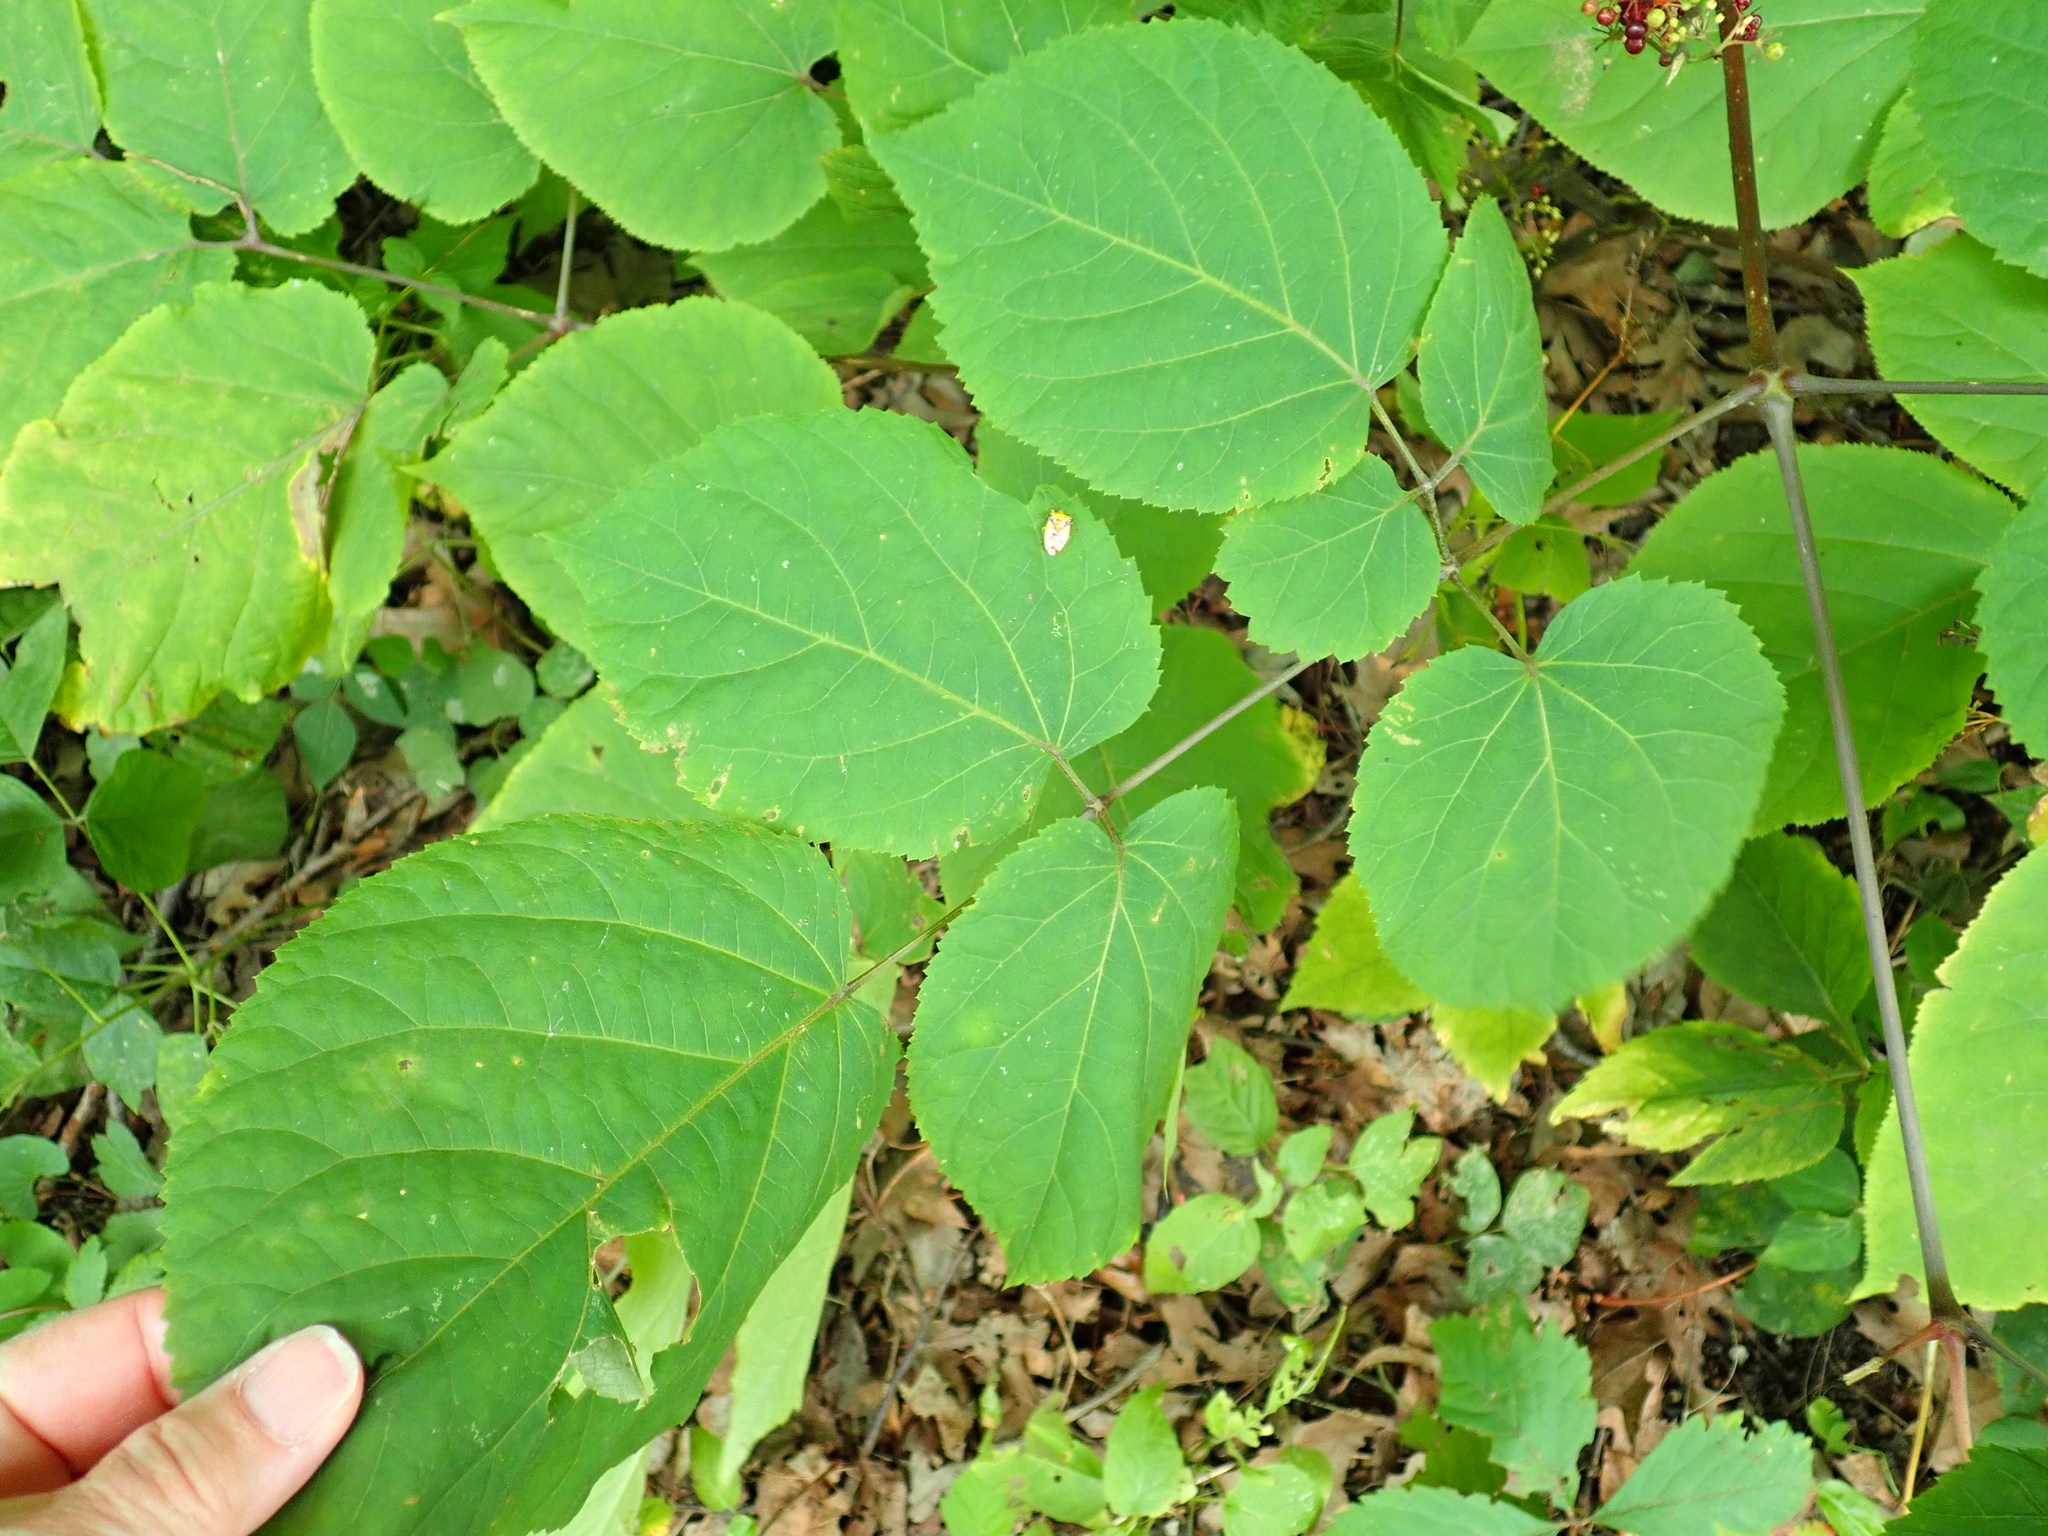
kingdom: Plantae
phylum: Tracheophyta
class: Magnoliopsida
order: Apiales
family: Araliaceae
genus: Aralia
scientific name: Aralia racemosa
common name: American-spikenard
